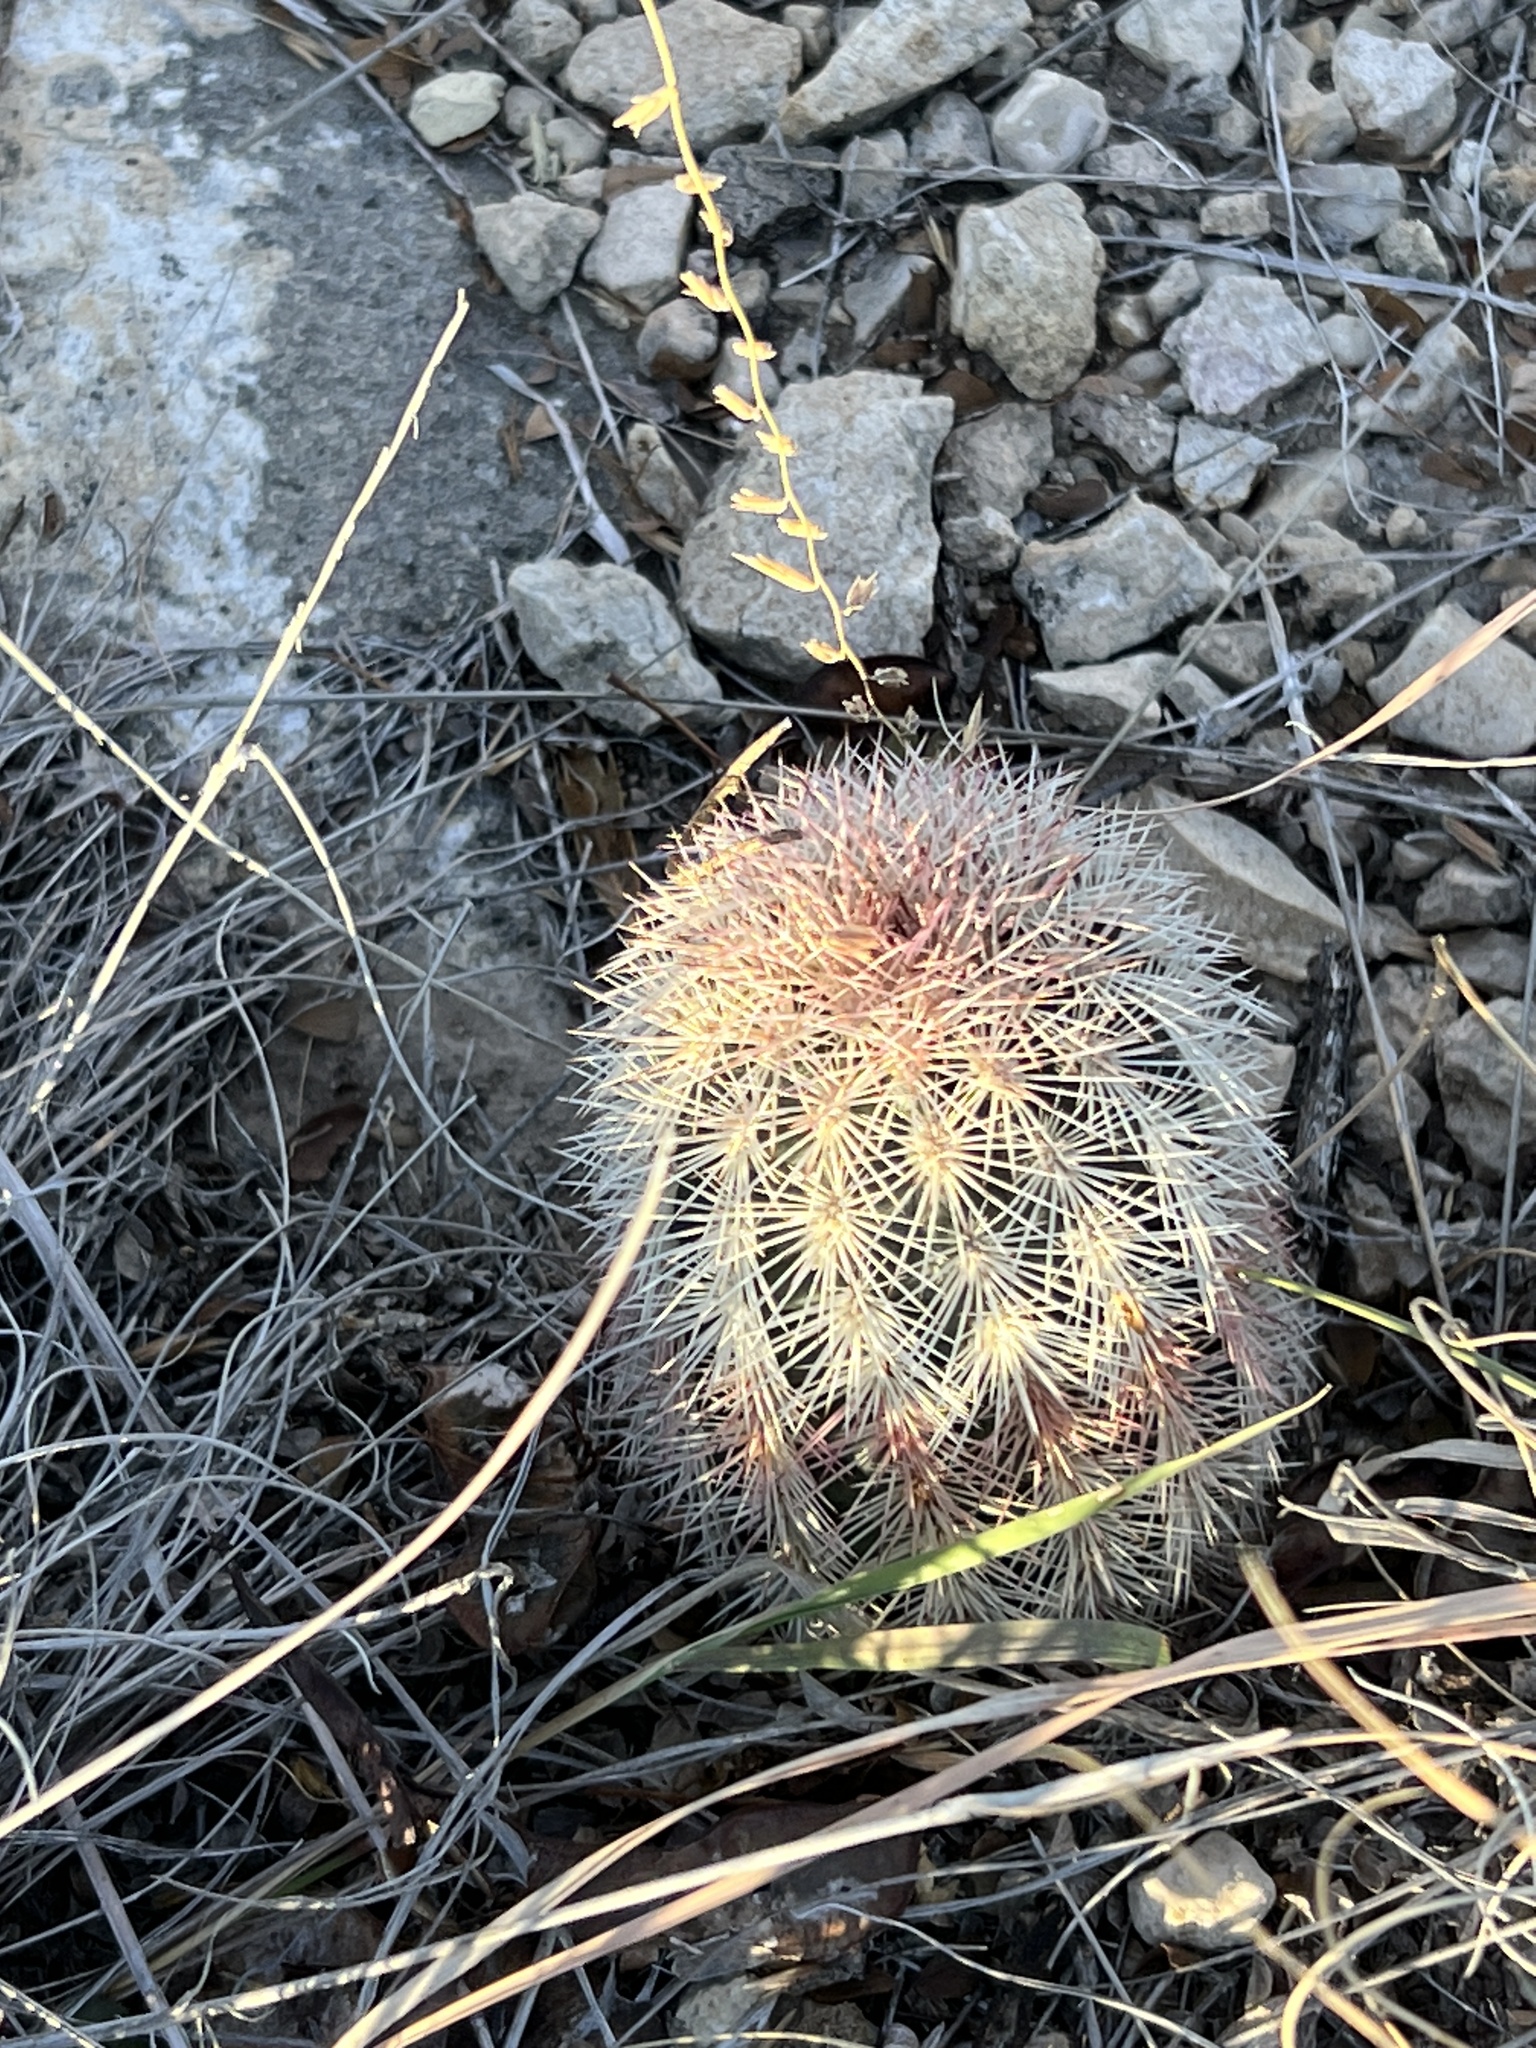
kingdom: Plantae
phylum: Tracheophyta
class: Magnoliopsida
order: Caryophyllales
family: Cactaceae
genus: Echinocereus
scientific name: Echinocereus dasyacanthus
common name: Spiny hedgehog cactus
